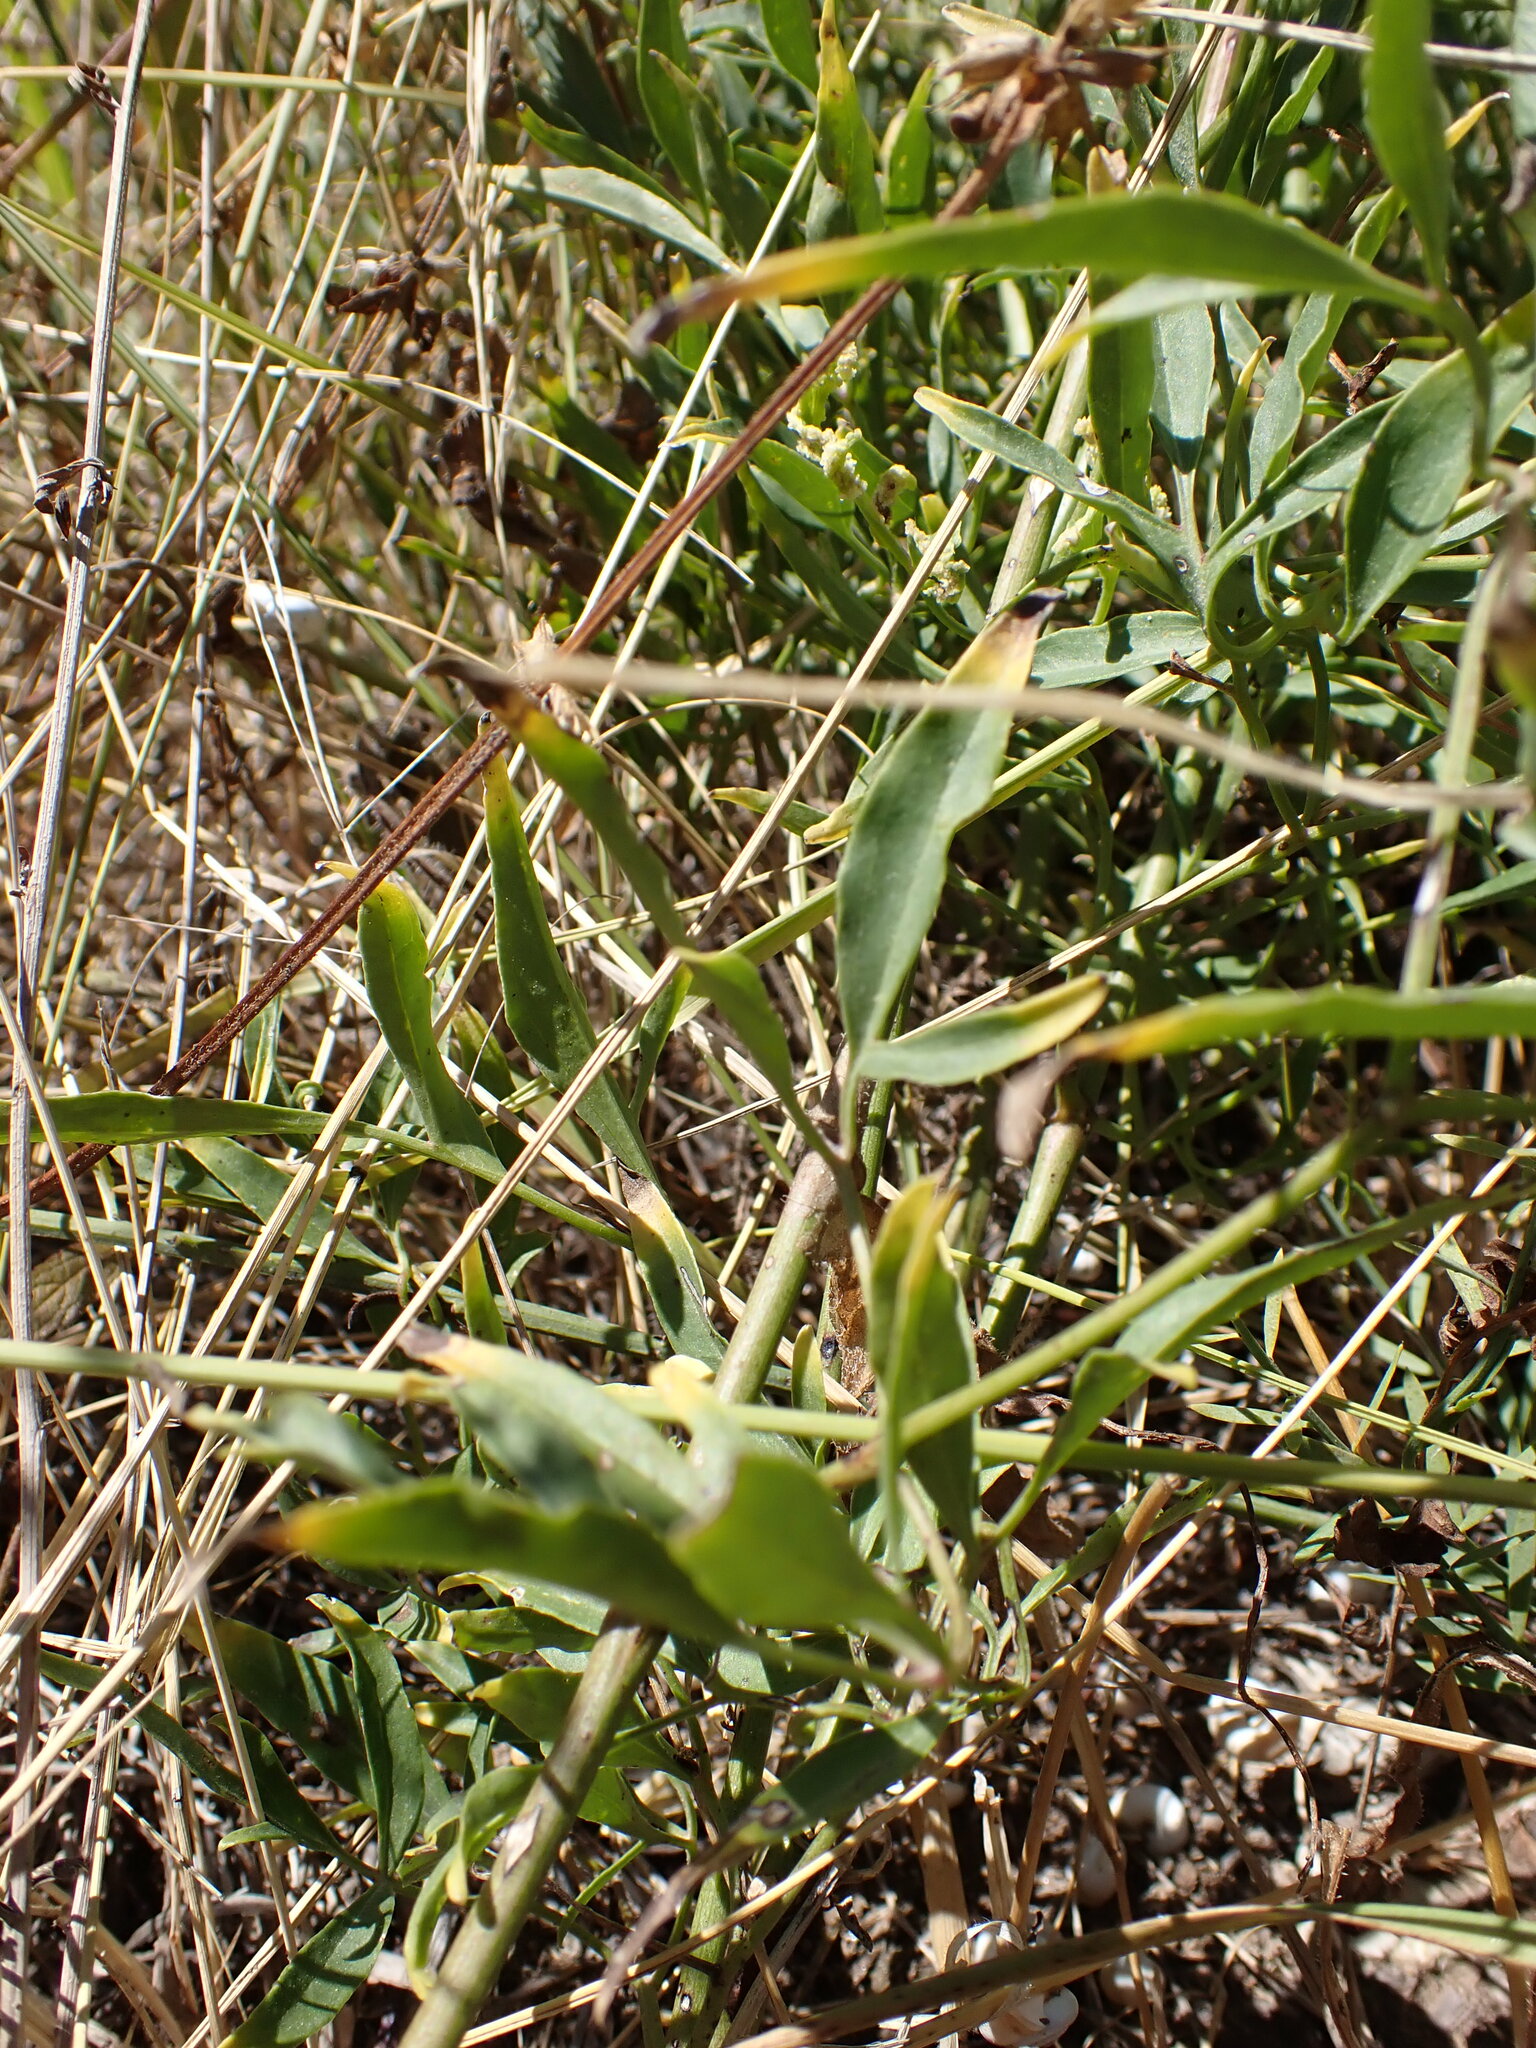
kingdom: Plantae
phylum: Tracheophyta
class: Magnoliopsida
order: Ranunculales
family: Ranunculaceae
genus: Clematis
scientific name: Clematis flammula
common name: Virgin's-bower
